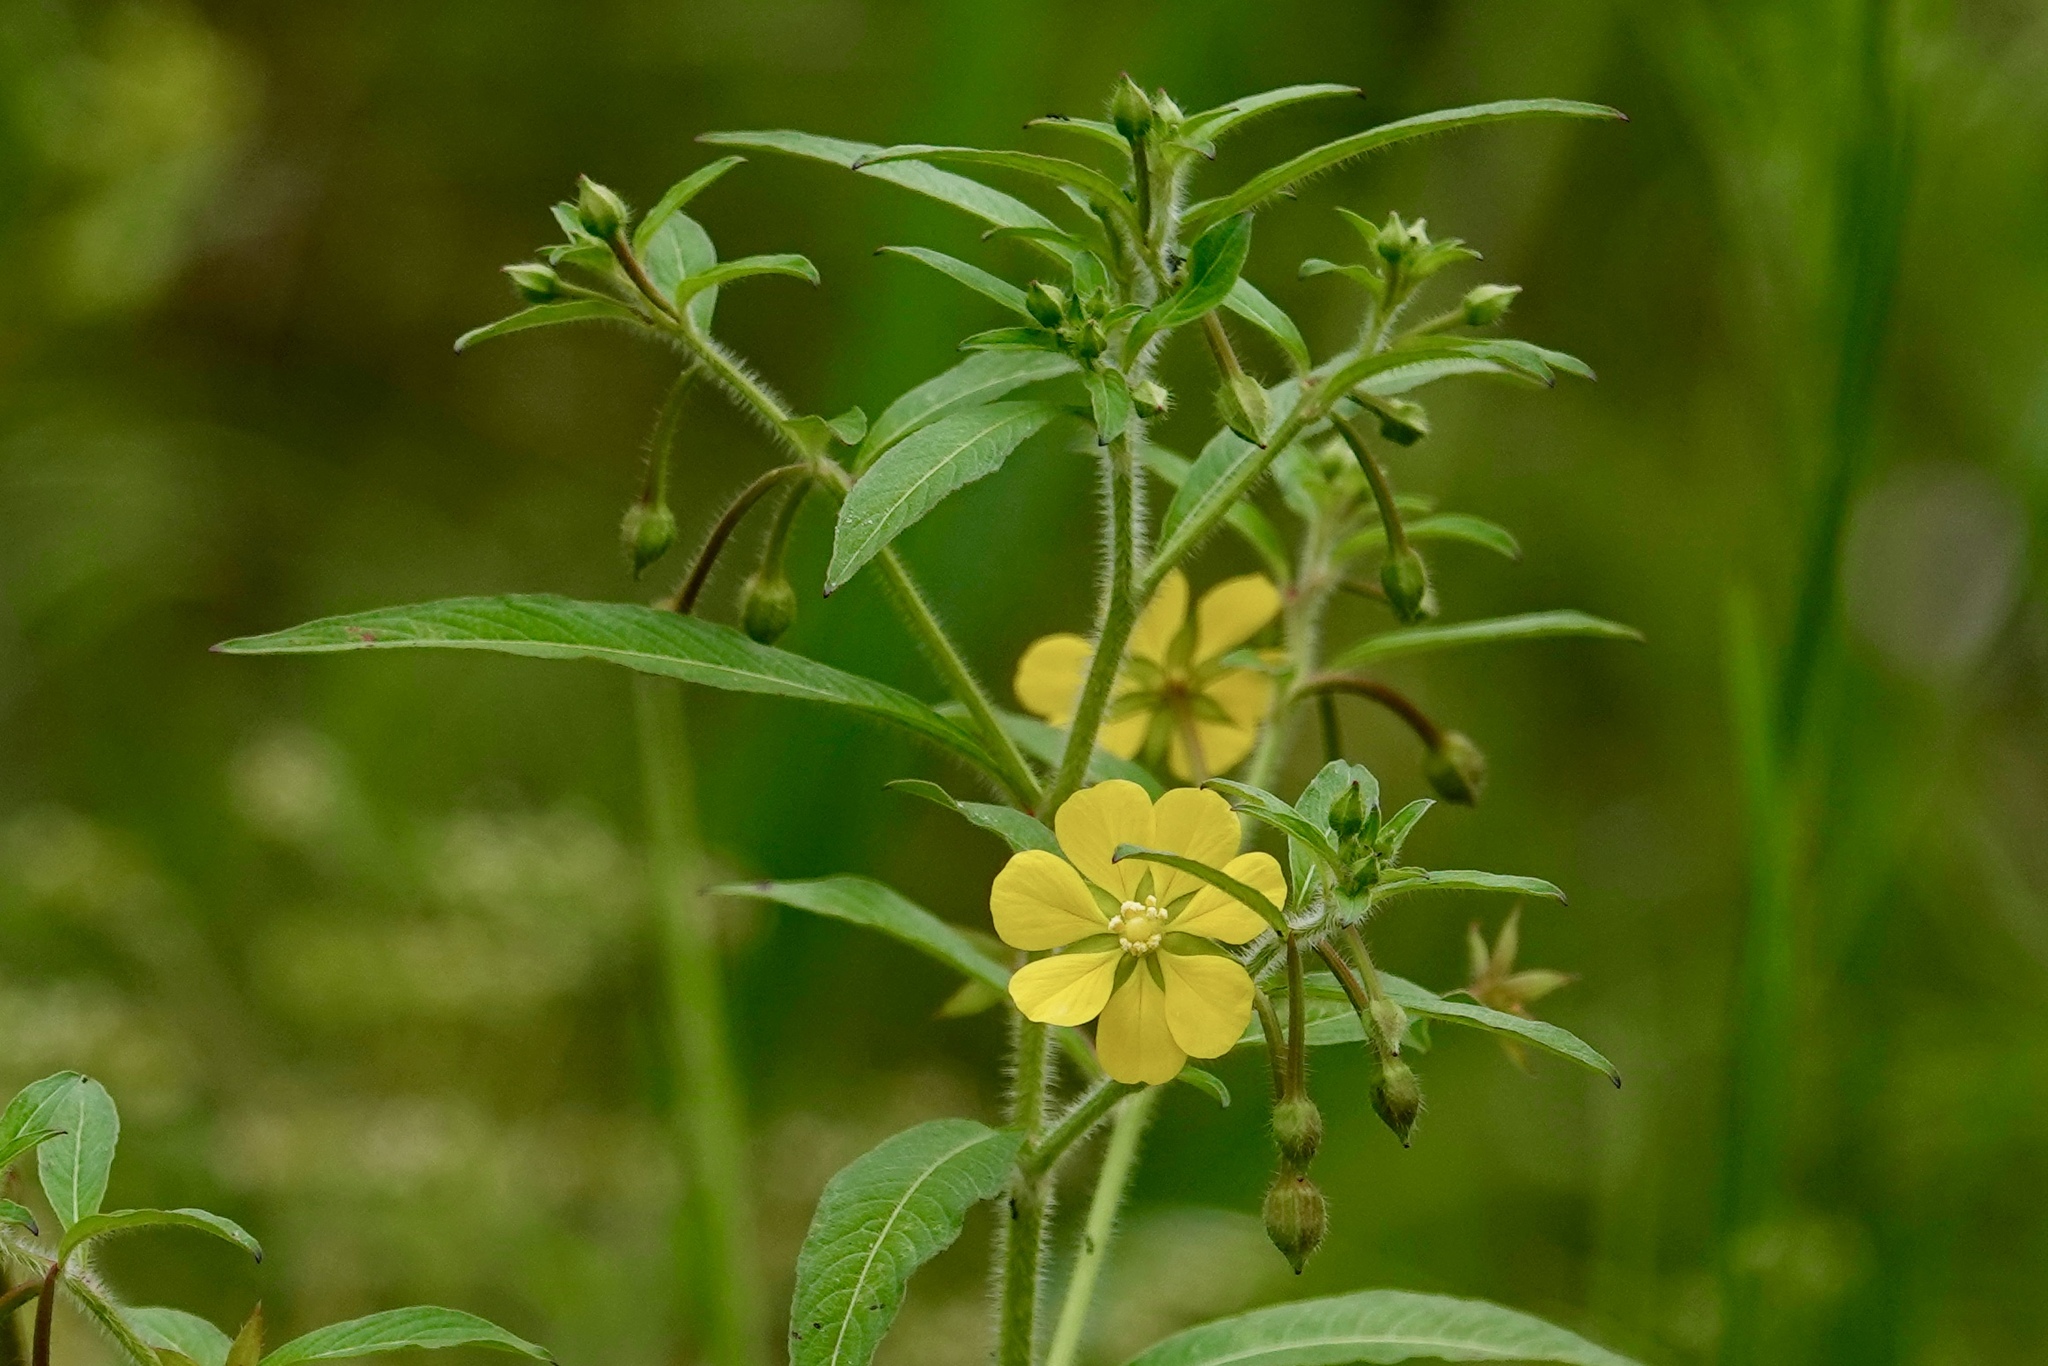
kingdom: Plantae
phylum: Tracheophyta
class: Magnoliopsida
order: Myrtales
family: Onagraceae
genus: Ludwigia
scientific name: Ludwigia leptocarpa
